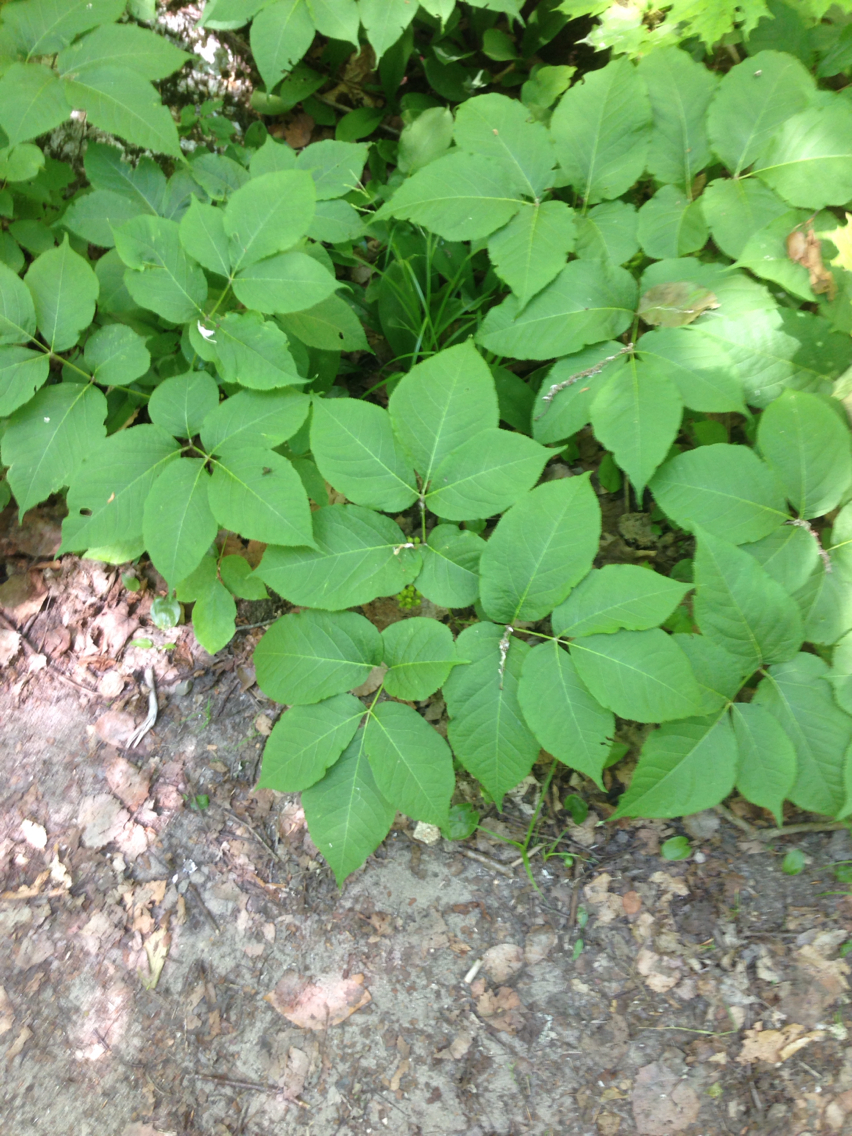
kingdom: Plantae
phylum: Tracheophyta
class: Magnoliopsida
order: Apiales
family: Araliaceae
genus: Aralia
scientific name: Aralia nudicaulis
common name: Wild sarsaparilla
